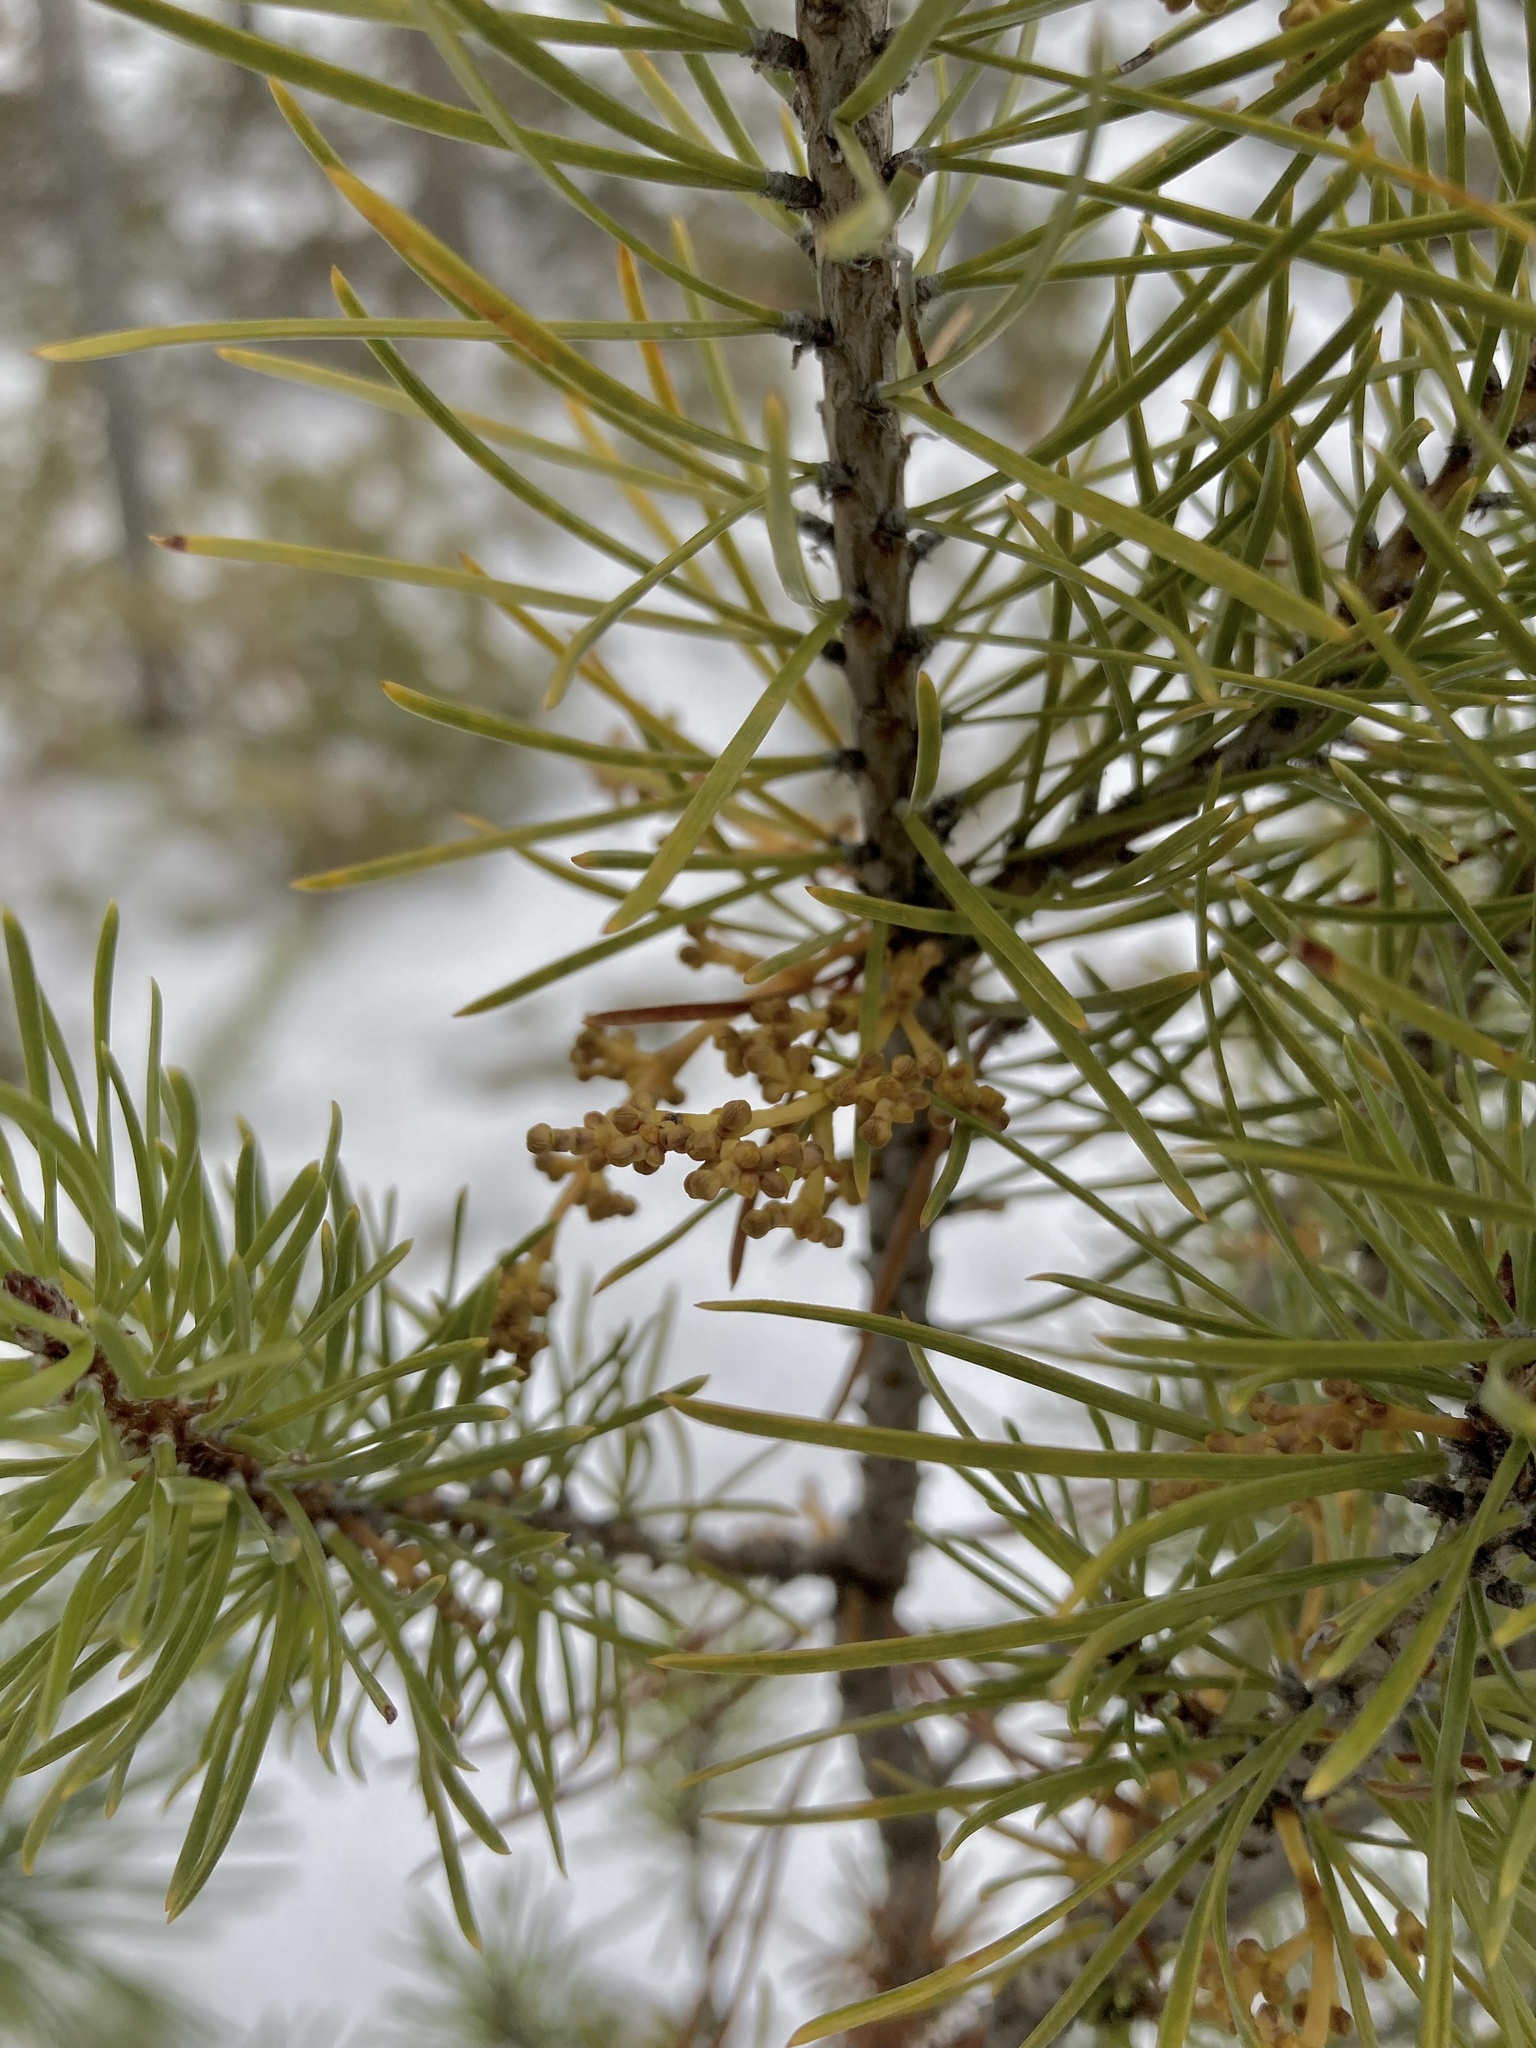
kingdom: Plantae
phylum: Tracheophyta
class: Magnoliopsida
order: Santalales
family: Viscaceae
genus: Arceuthobium
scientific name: Arceuthobium americanum
